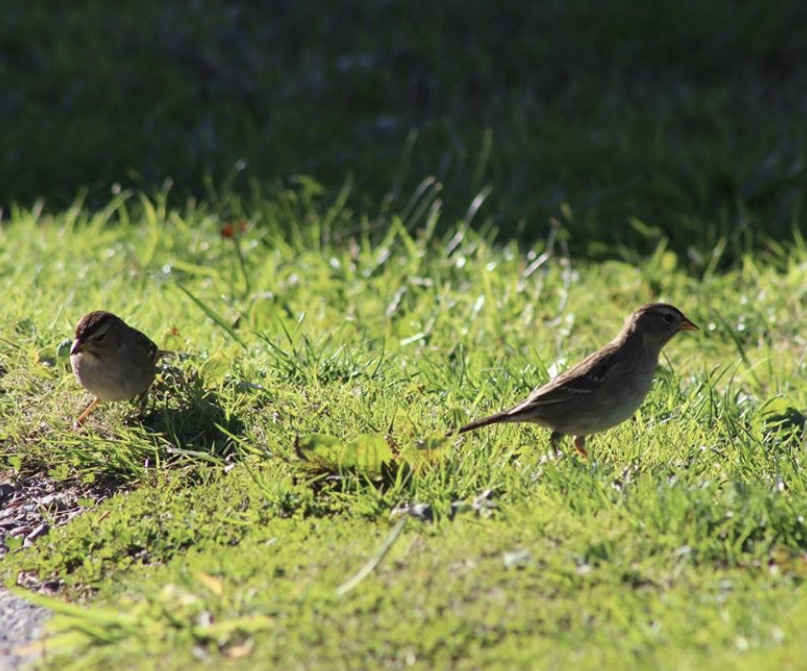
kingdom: Animalia
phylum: Chordata
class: Aves
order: Passeriformes
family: Passerellidae
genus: Zonotrichia
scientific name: Zonotrichia leucophrys
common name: White-crowned sparrow
